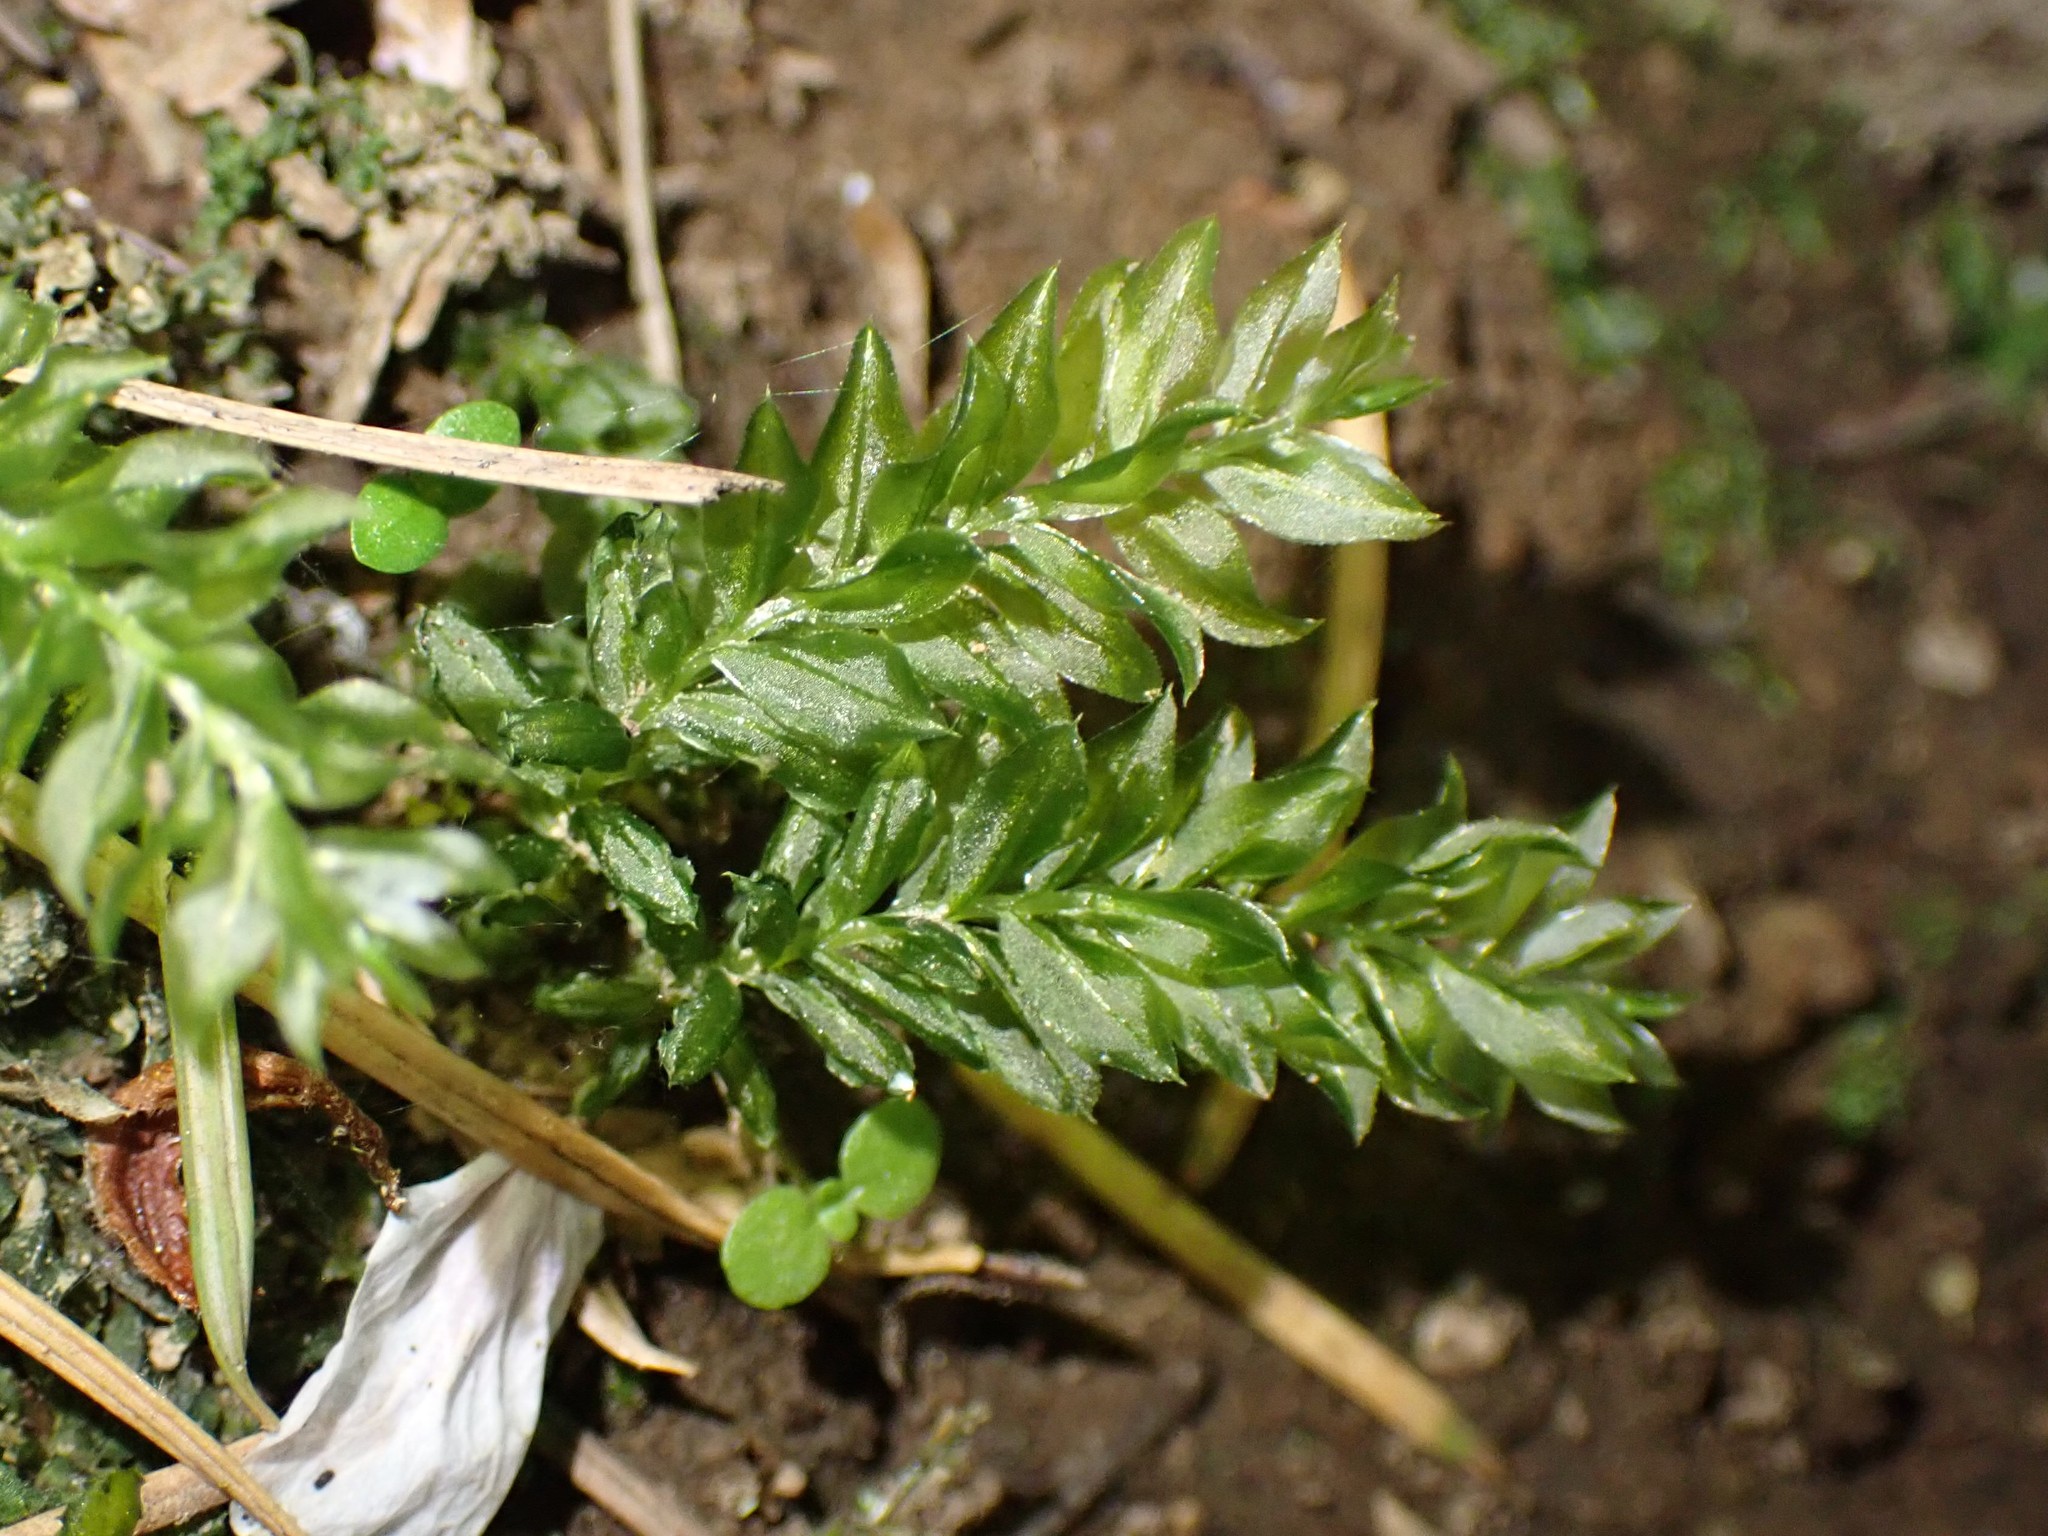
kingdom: Plantae
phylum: Bryophyta
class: Bryopsida
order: Bryales
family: Mniaceae
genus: Plagiomnium
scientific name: Plagiomnium insigne
